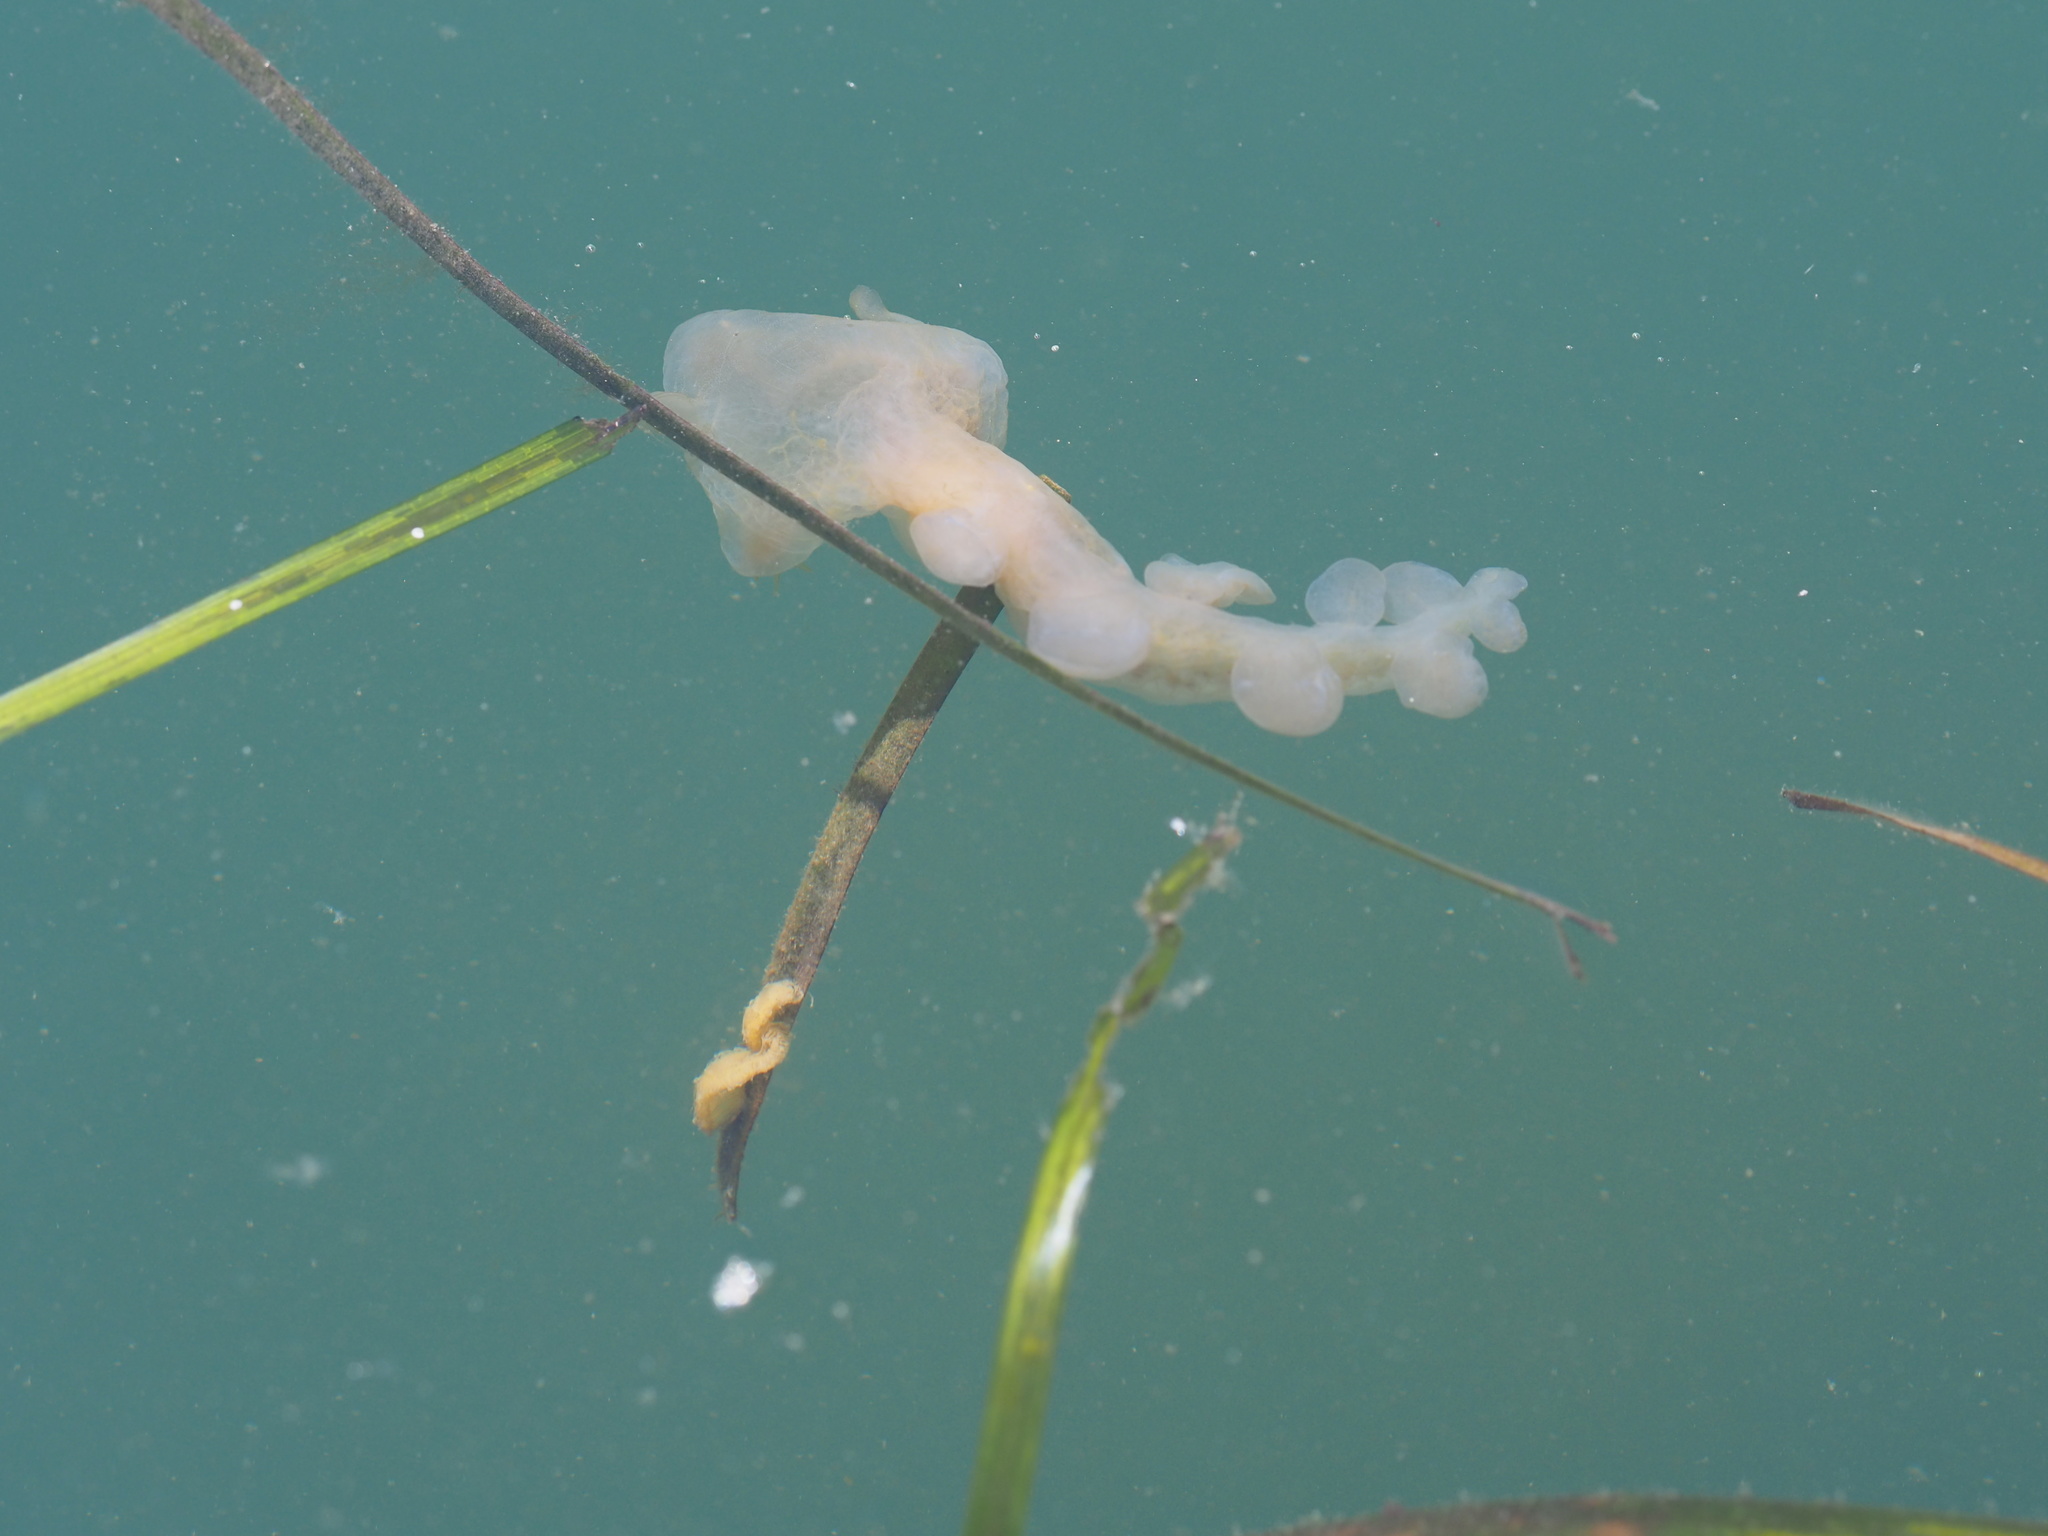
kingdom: Animalia
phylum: Mollusca
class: Gastropoda
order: Nudibranchia
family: Tethydidae
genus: Melibe
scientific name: Melibe leonina
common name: Lion nudibranch
